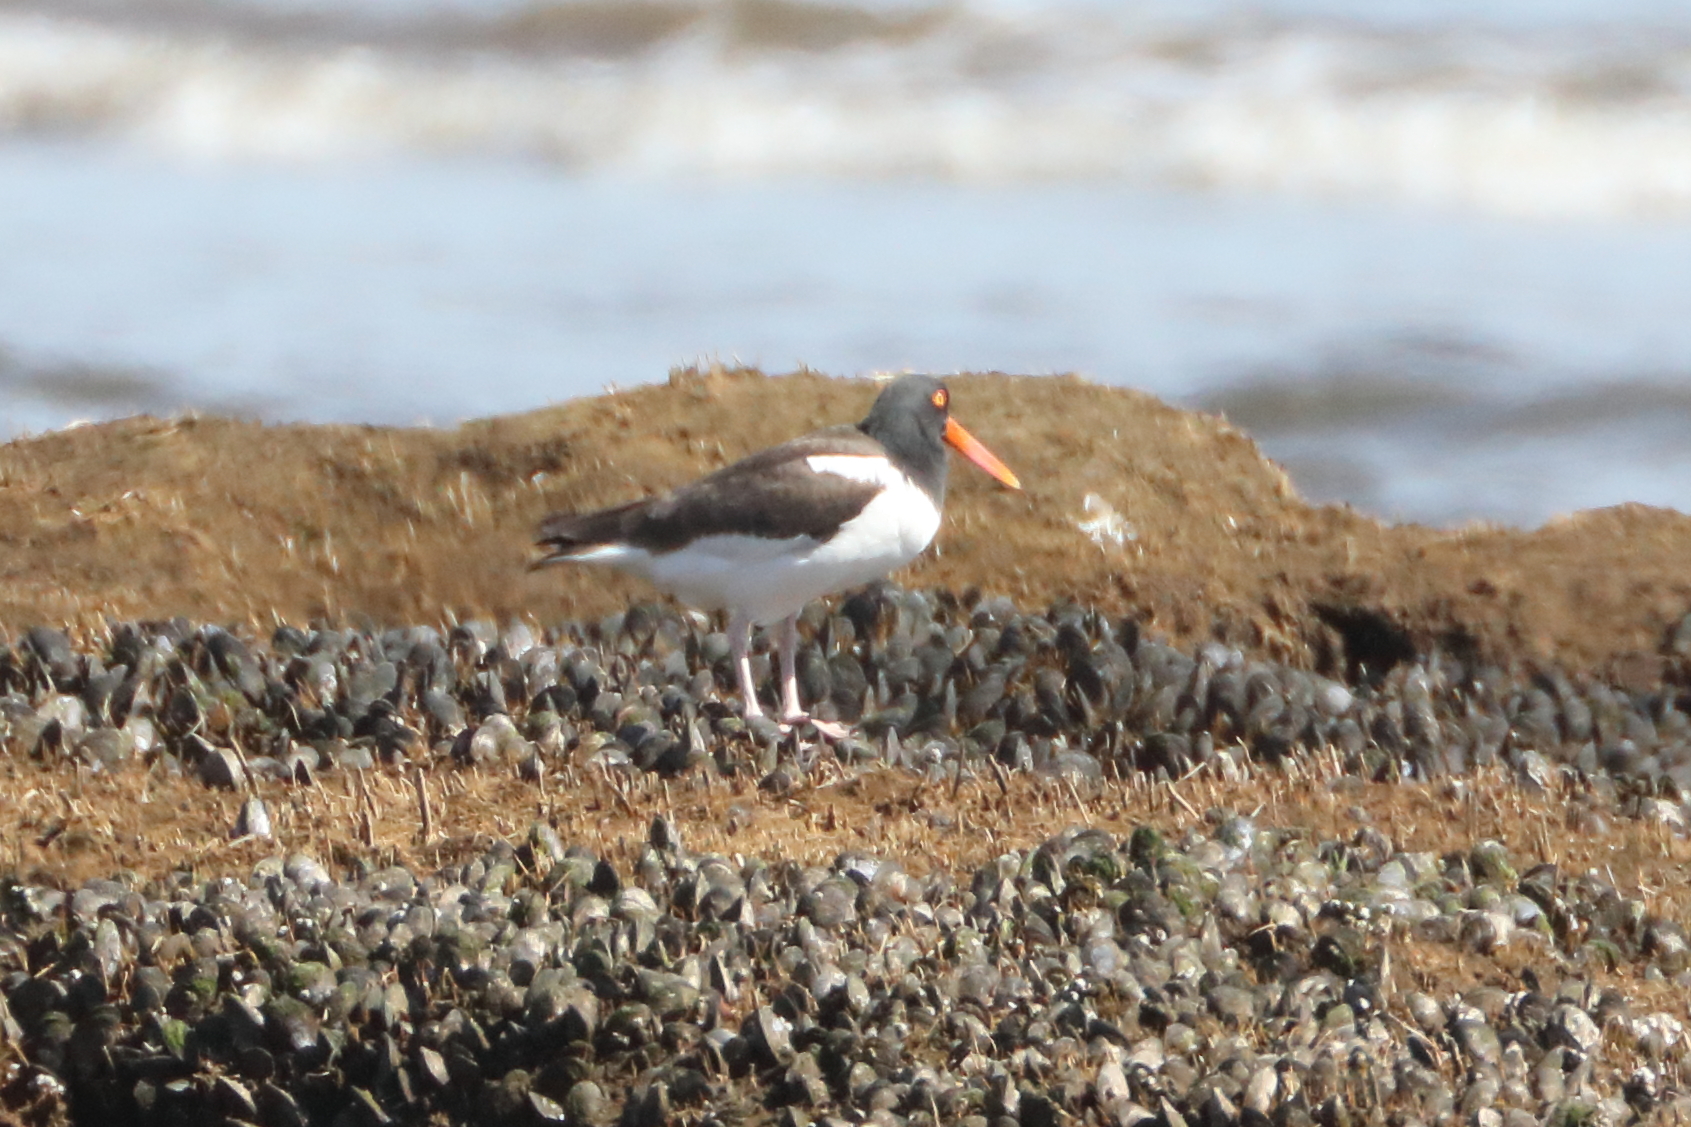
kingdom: Animalia
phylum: Chordata
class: Aves
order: Charadriiformes
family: Haematopodidae
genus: Haematopus
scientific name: Haematopus palliatus
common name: American oystercatcher
